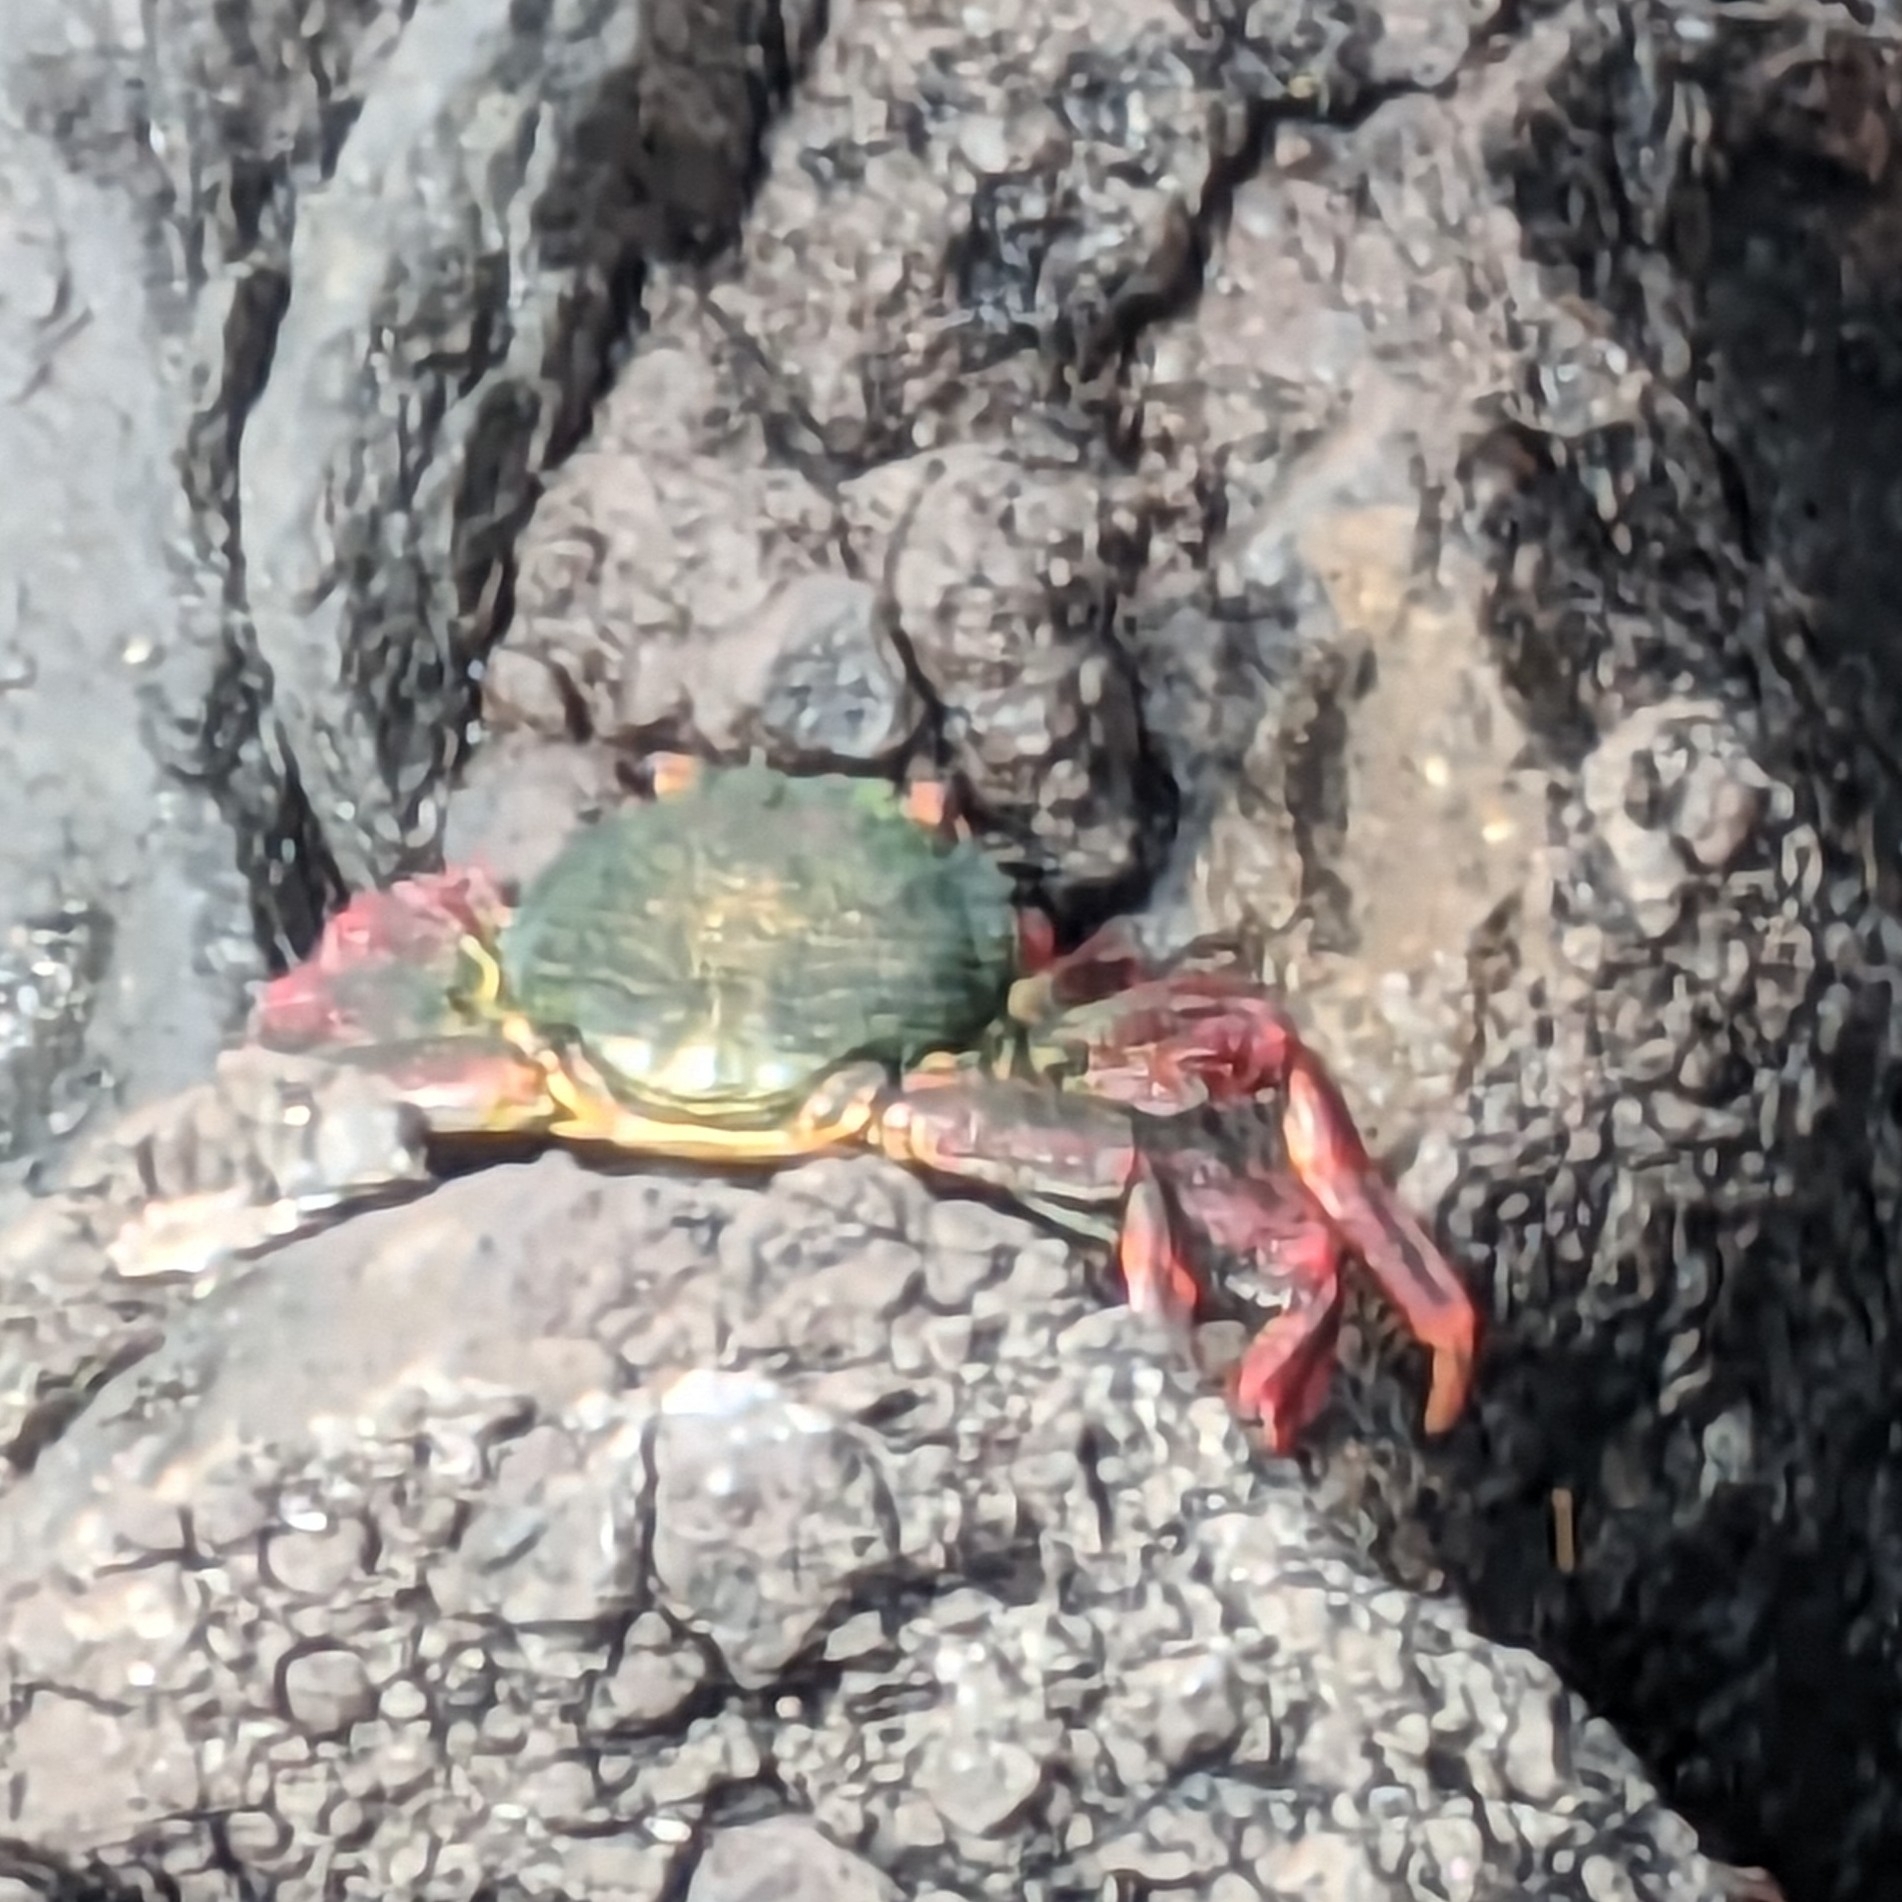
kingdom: Animalia
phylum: Arthropoda
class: Malacostraca
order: Decapoda
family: Grapsidae
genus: Grapsus
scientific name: Grapsus adscensionis
